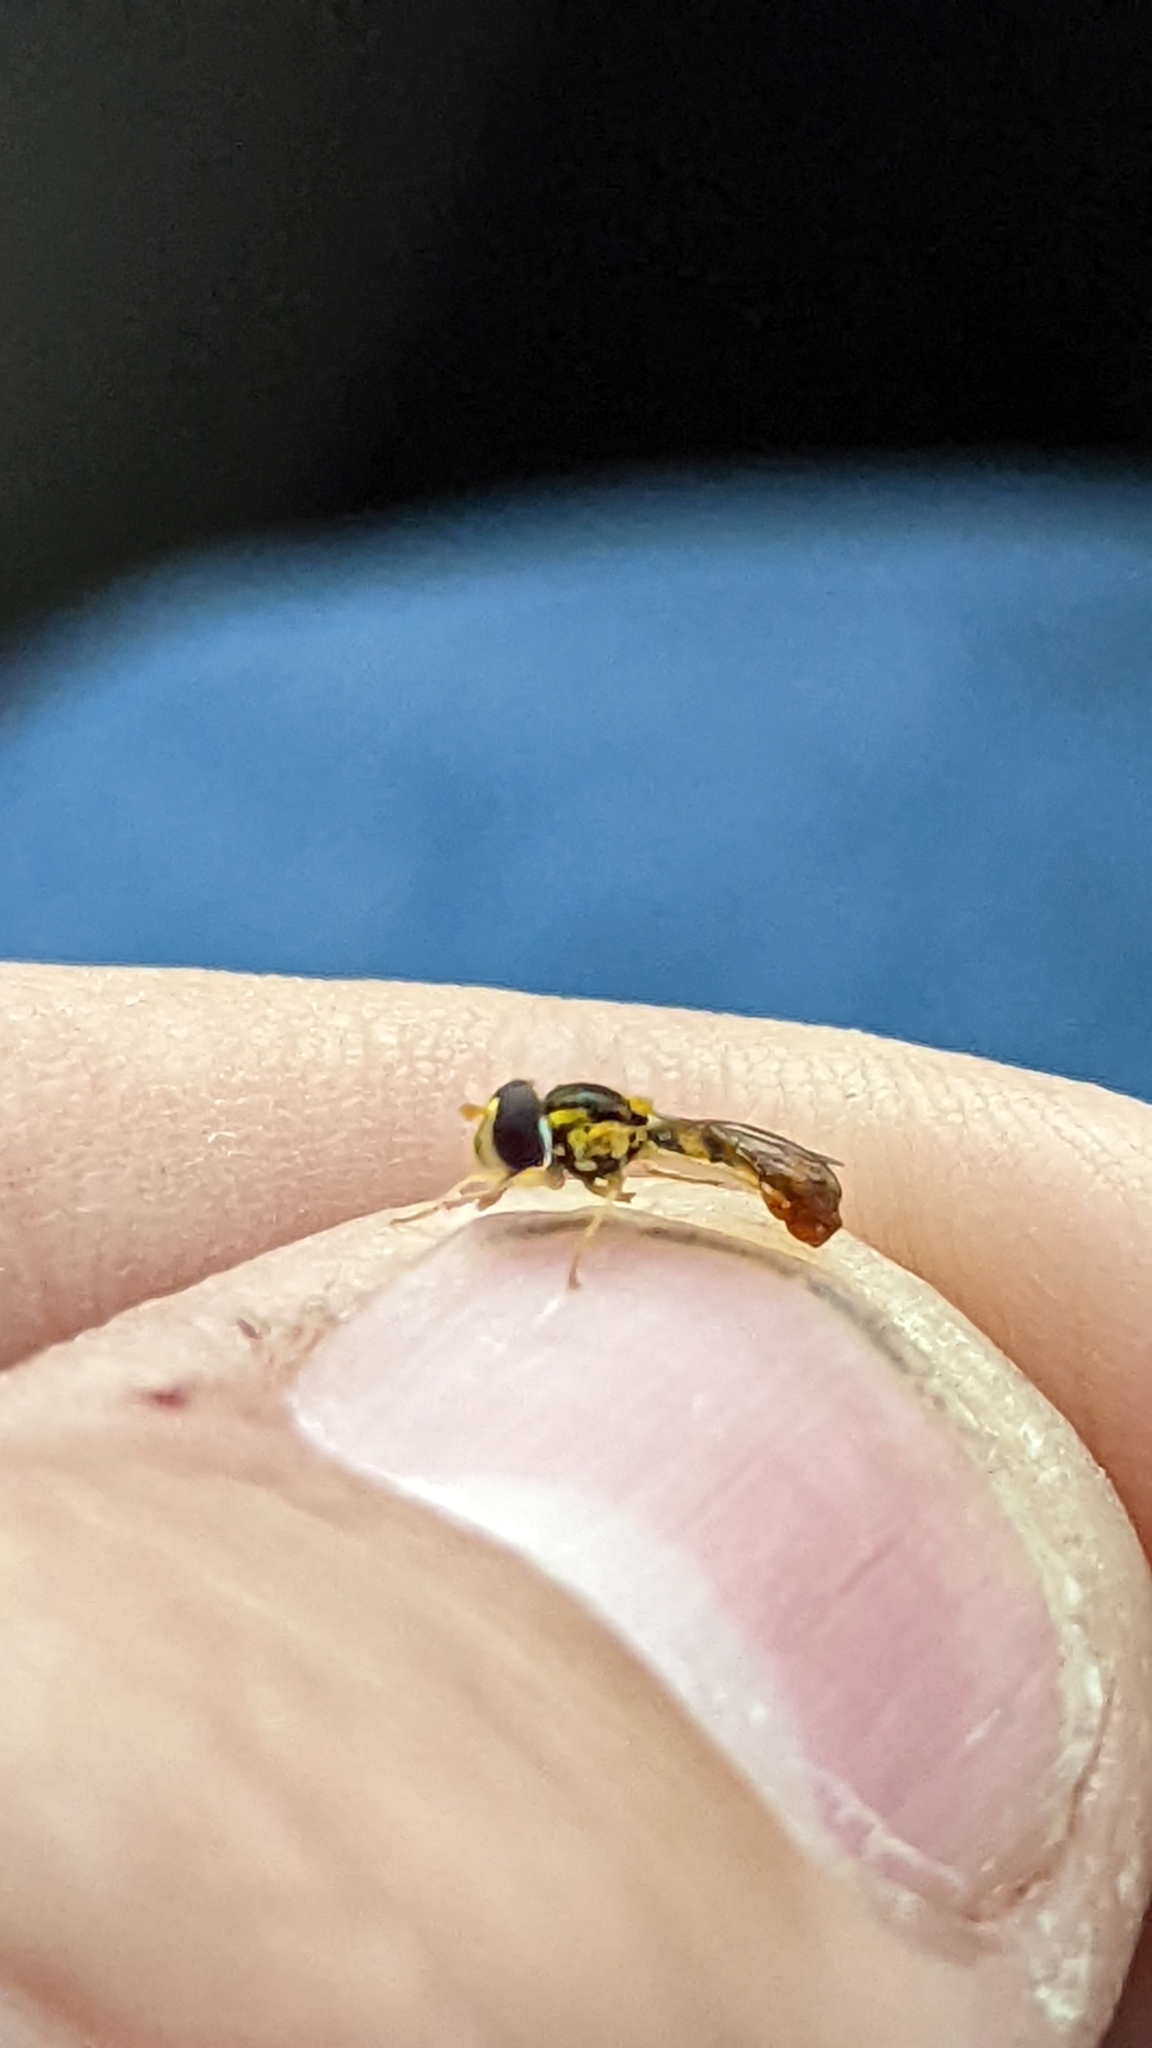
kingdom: Animalia
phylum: Arthropoda
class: Insecta
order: Diptera
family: Syrphidae
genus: Sphaerophoria
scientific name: Sphaerophoria contigua
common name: Tufted globetail
